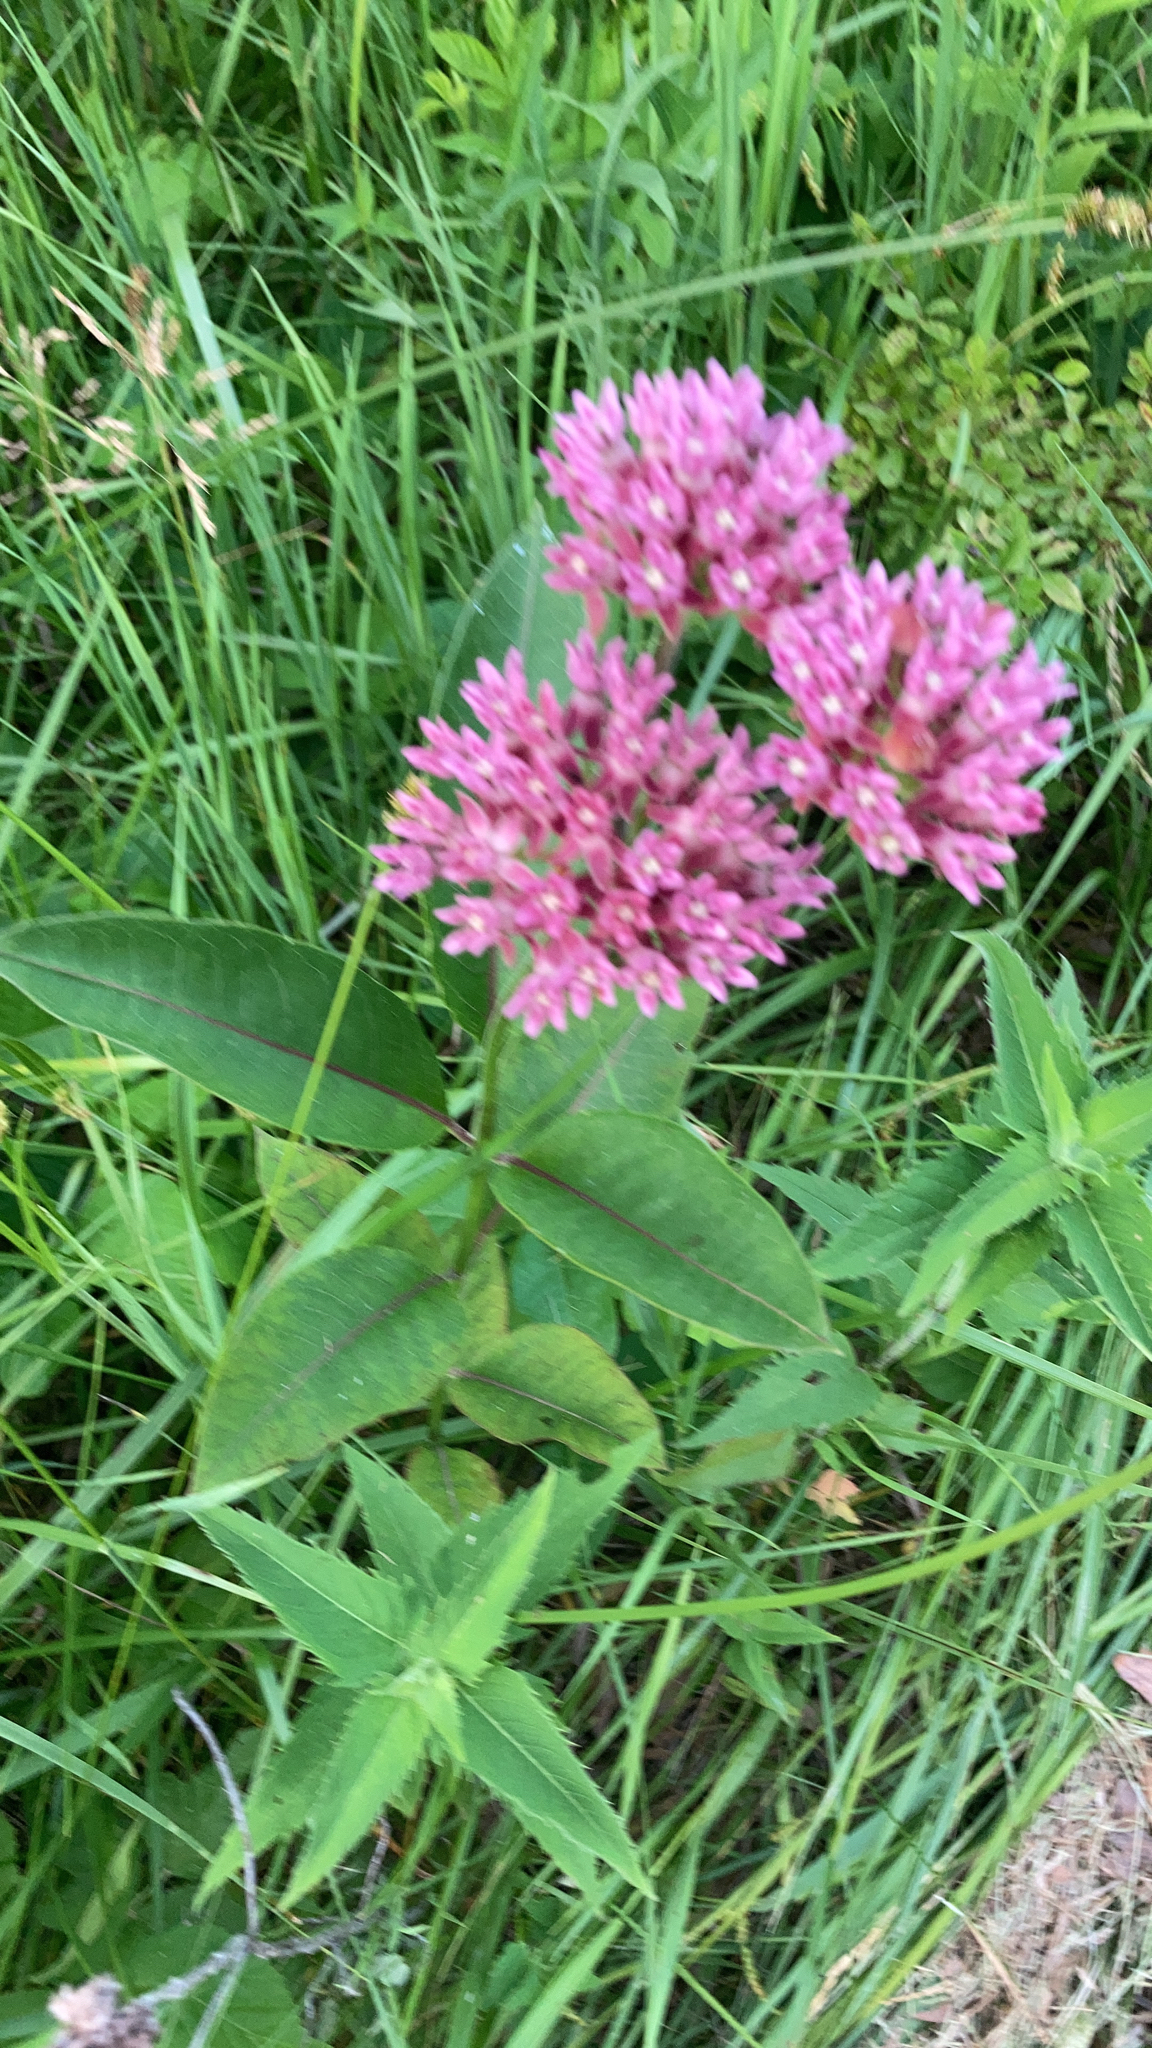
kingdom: Plantae
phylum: Tracheophyta
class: Magnoliopsida
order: Gentianales
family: Apocynaceae
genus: Asclepias
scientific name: Asclepias purpurascens
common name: Purple milkweed
